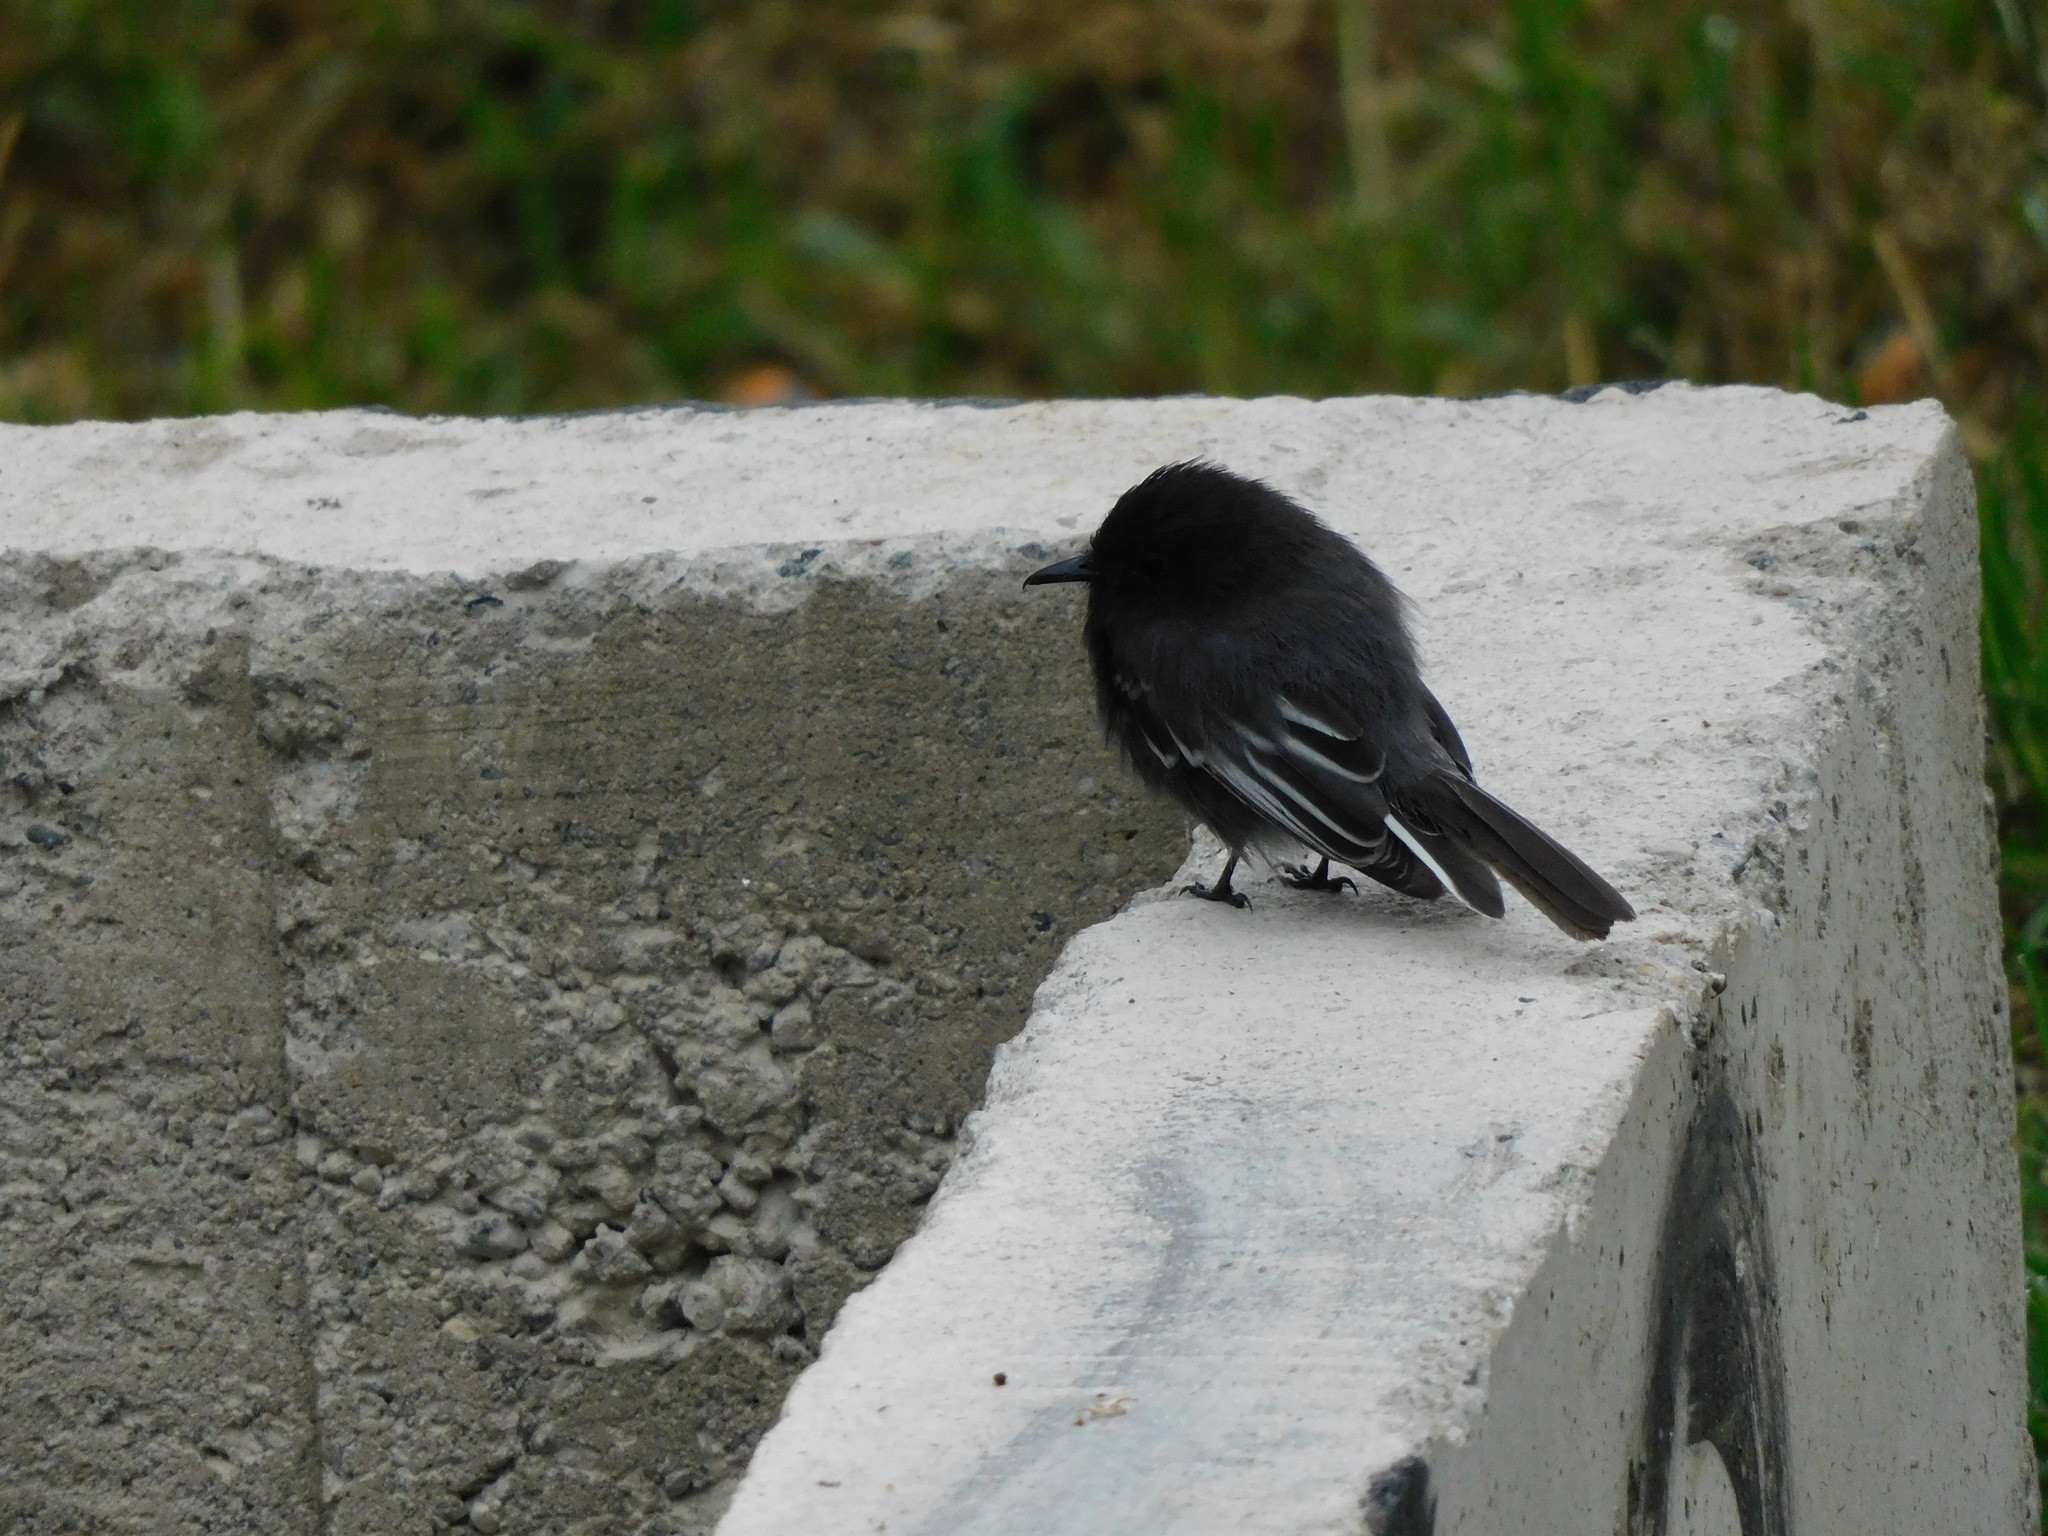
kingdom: Animalia
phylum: Chordata
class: Aves
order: Passeriformes
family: Tyrannidae
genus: Sayornis
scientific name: Sayornis nigricans
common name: Black phoebe
